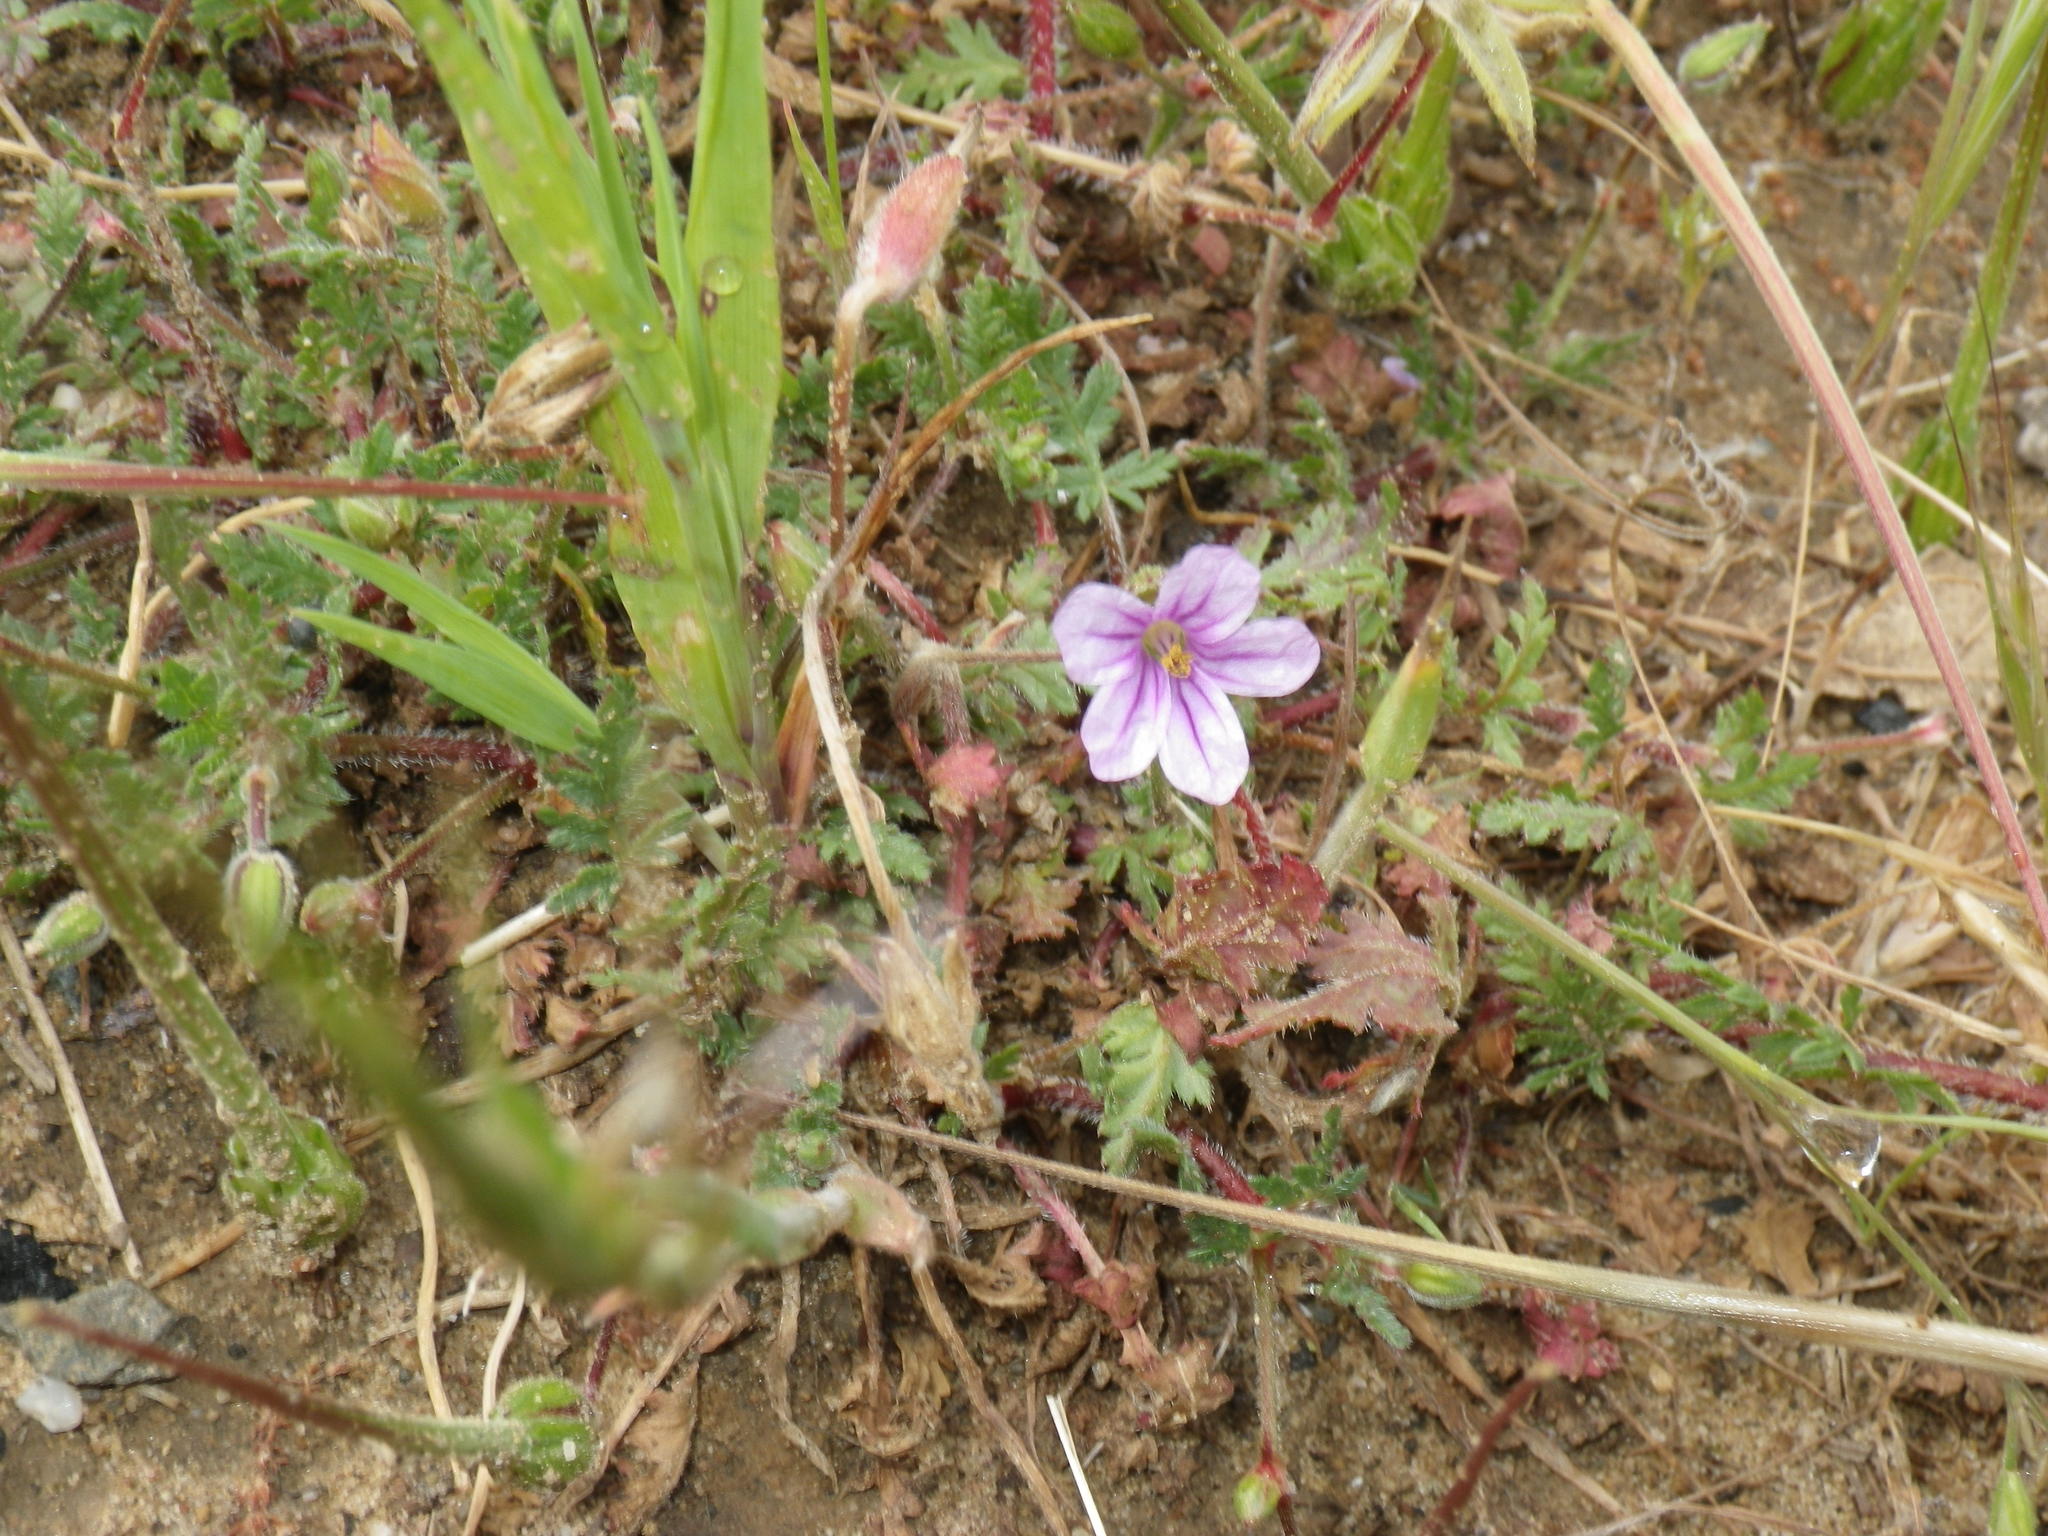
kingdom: Plantae
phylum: Tracheophyta
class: Magnoliopsida
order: Geraniales
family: Geraniaceae
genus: Erodium
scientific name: Erodium botrys
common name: Mediterranean stork's-bill
